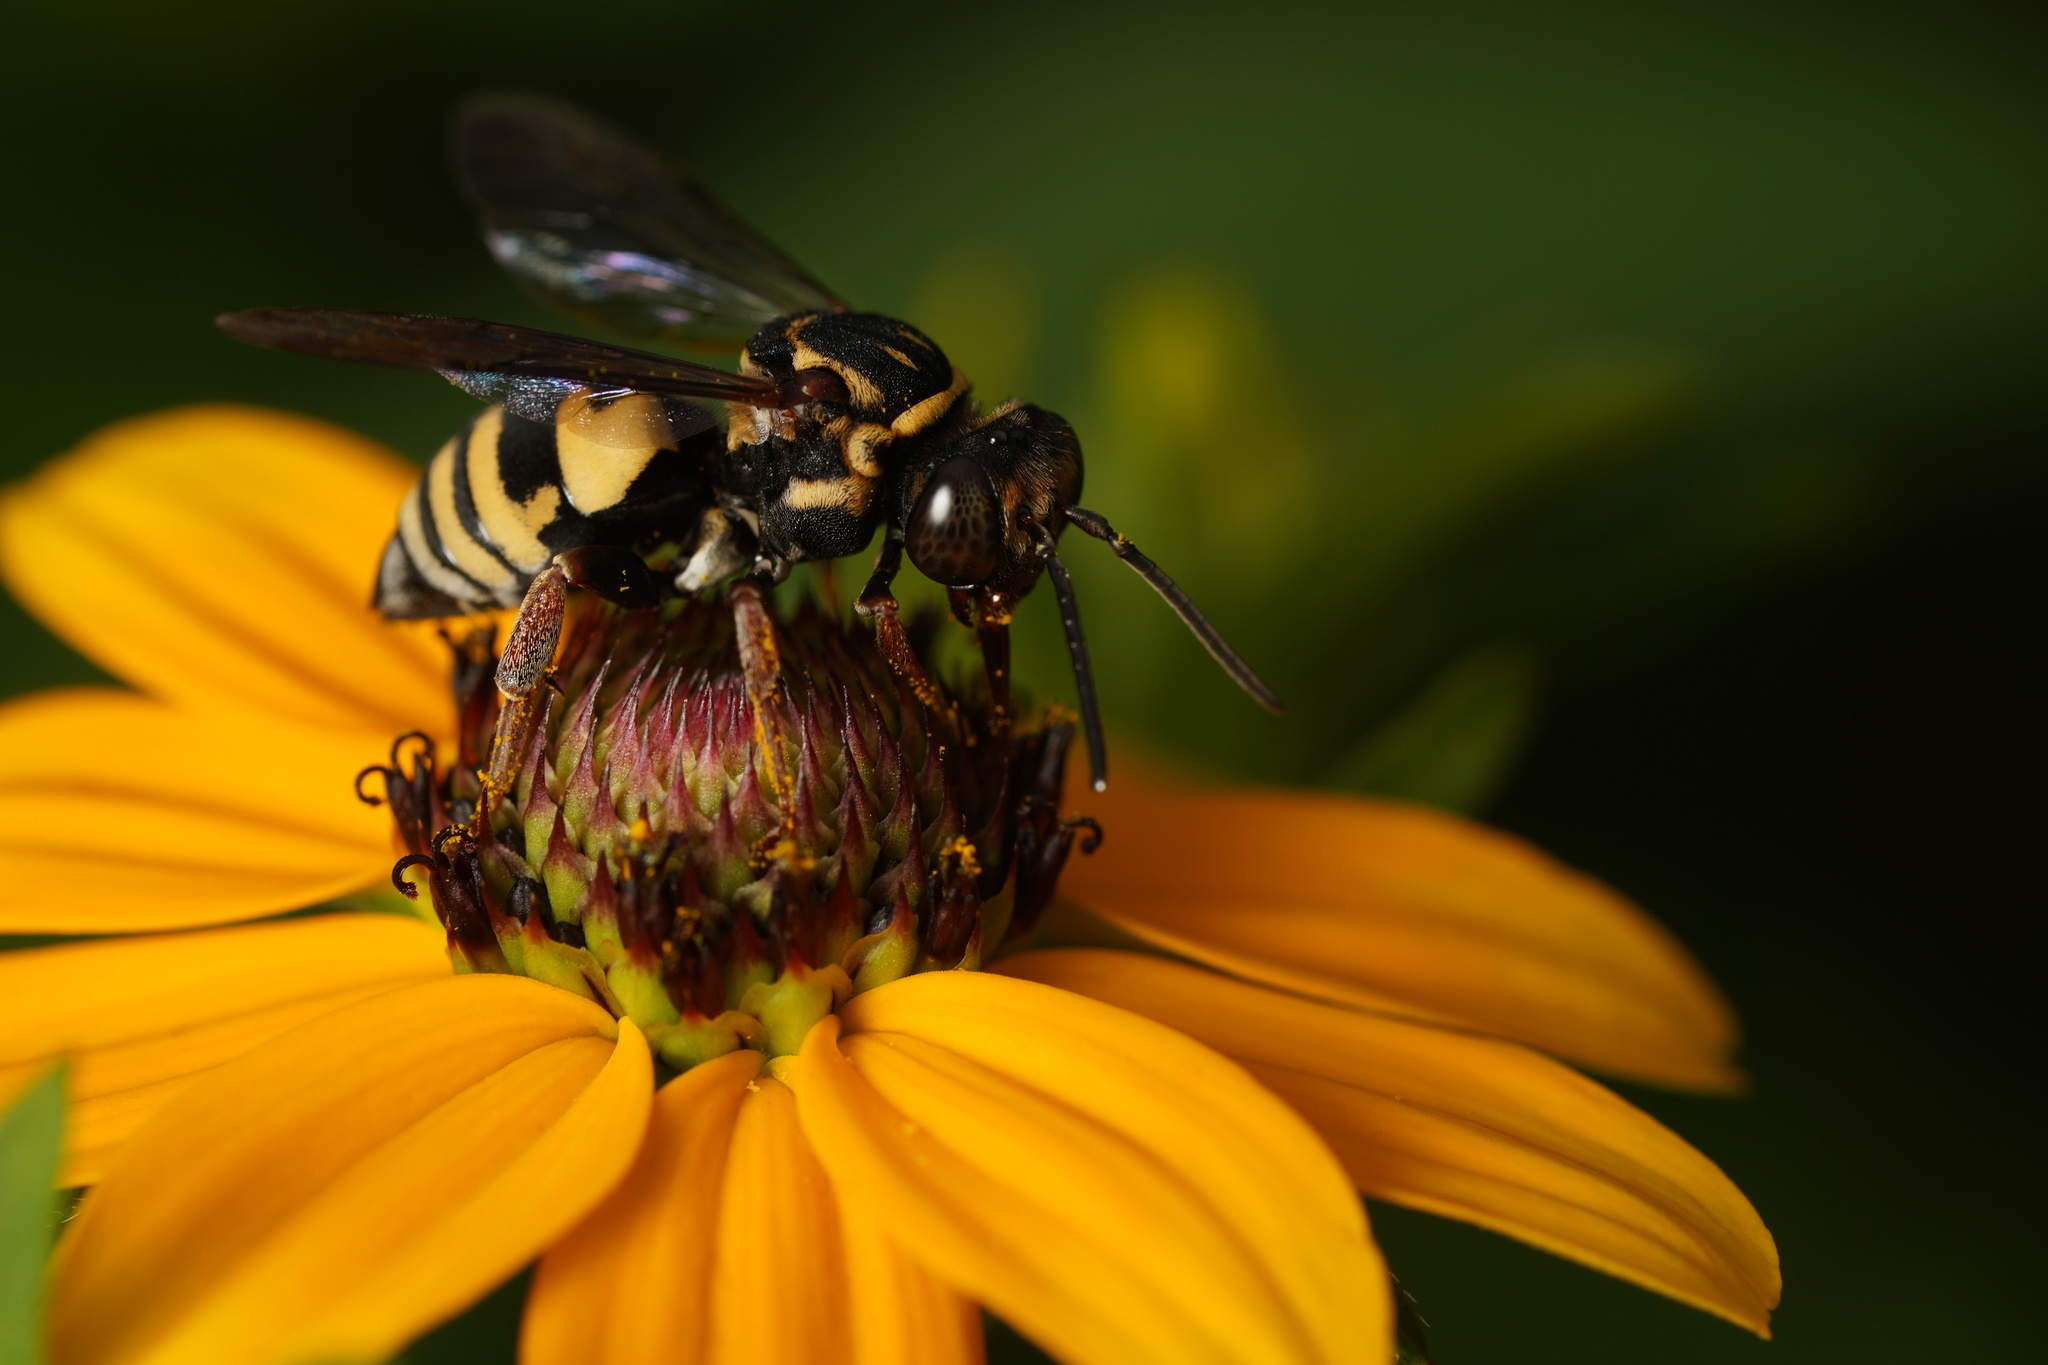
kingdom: Animalia
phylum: Arthropoda
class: Insecta
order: Hymenoptera
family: Apidae
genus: Triepeolus
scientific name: Triepeolus lunatus
